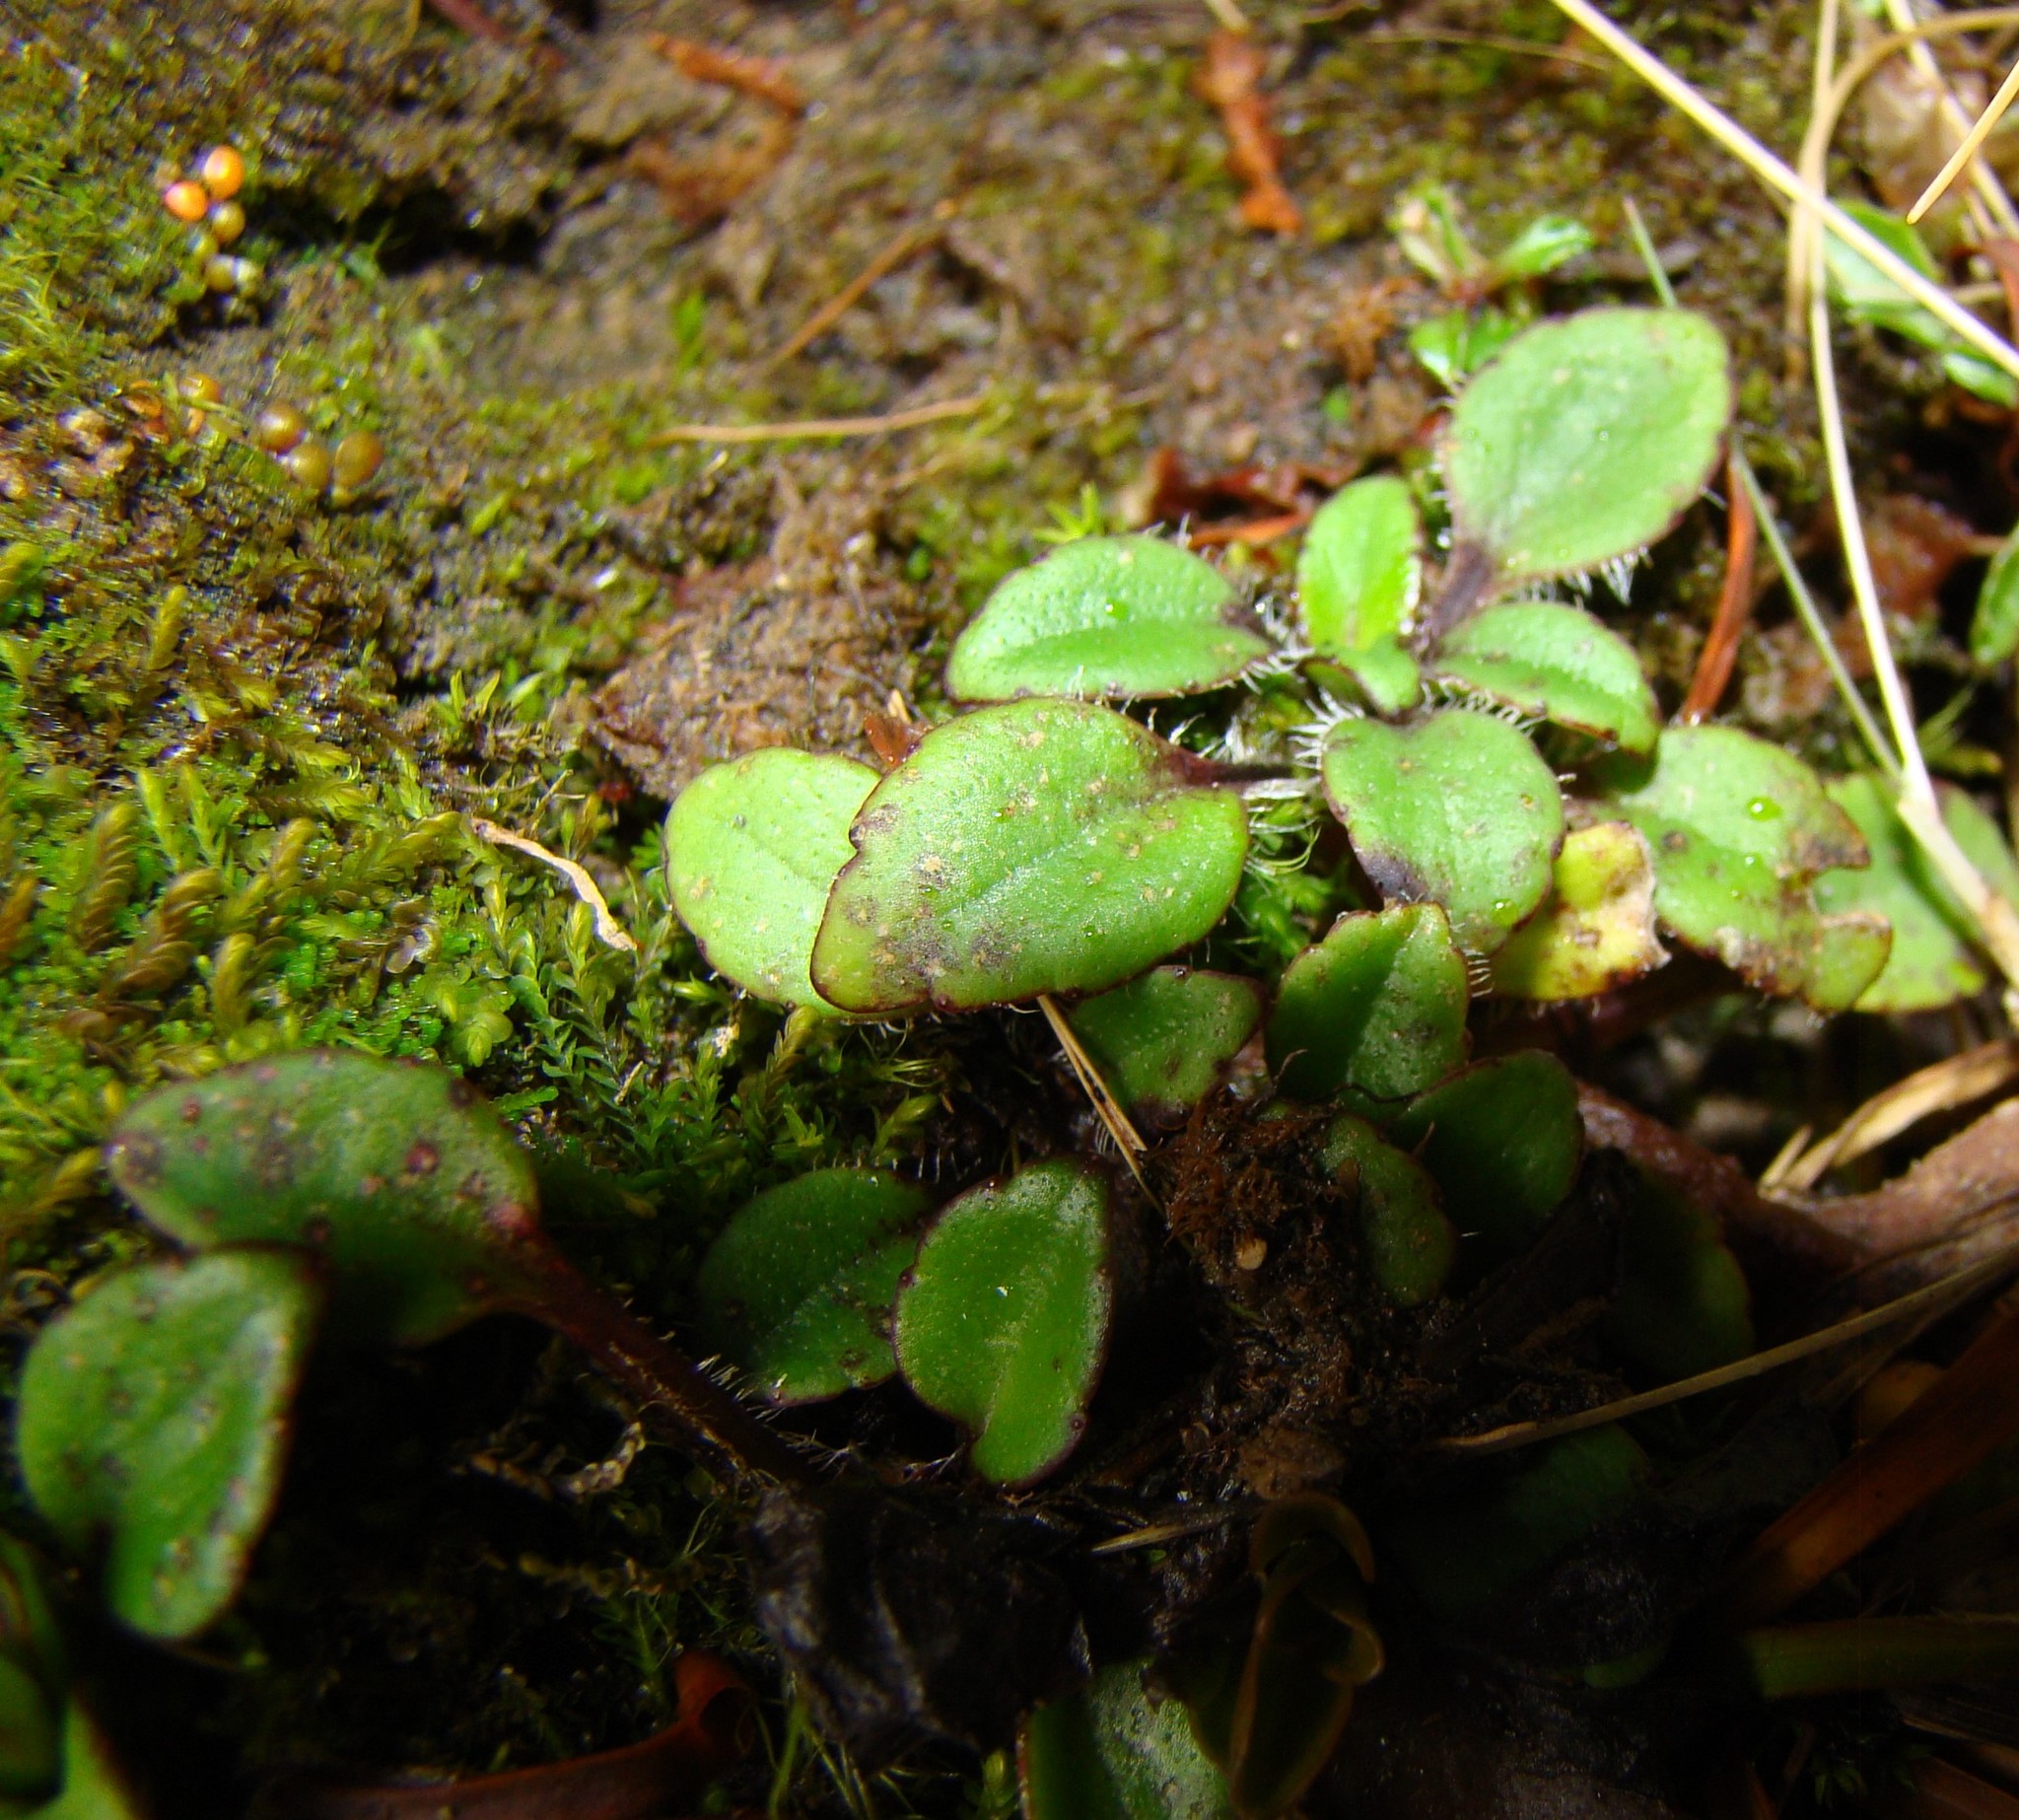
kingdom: Plantae
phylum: Tracheophyta
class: Magnoliopsida
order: Lamiales
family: Plantaginaceae
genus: Ourisia
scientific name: Ourisia vulcanica
